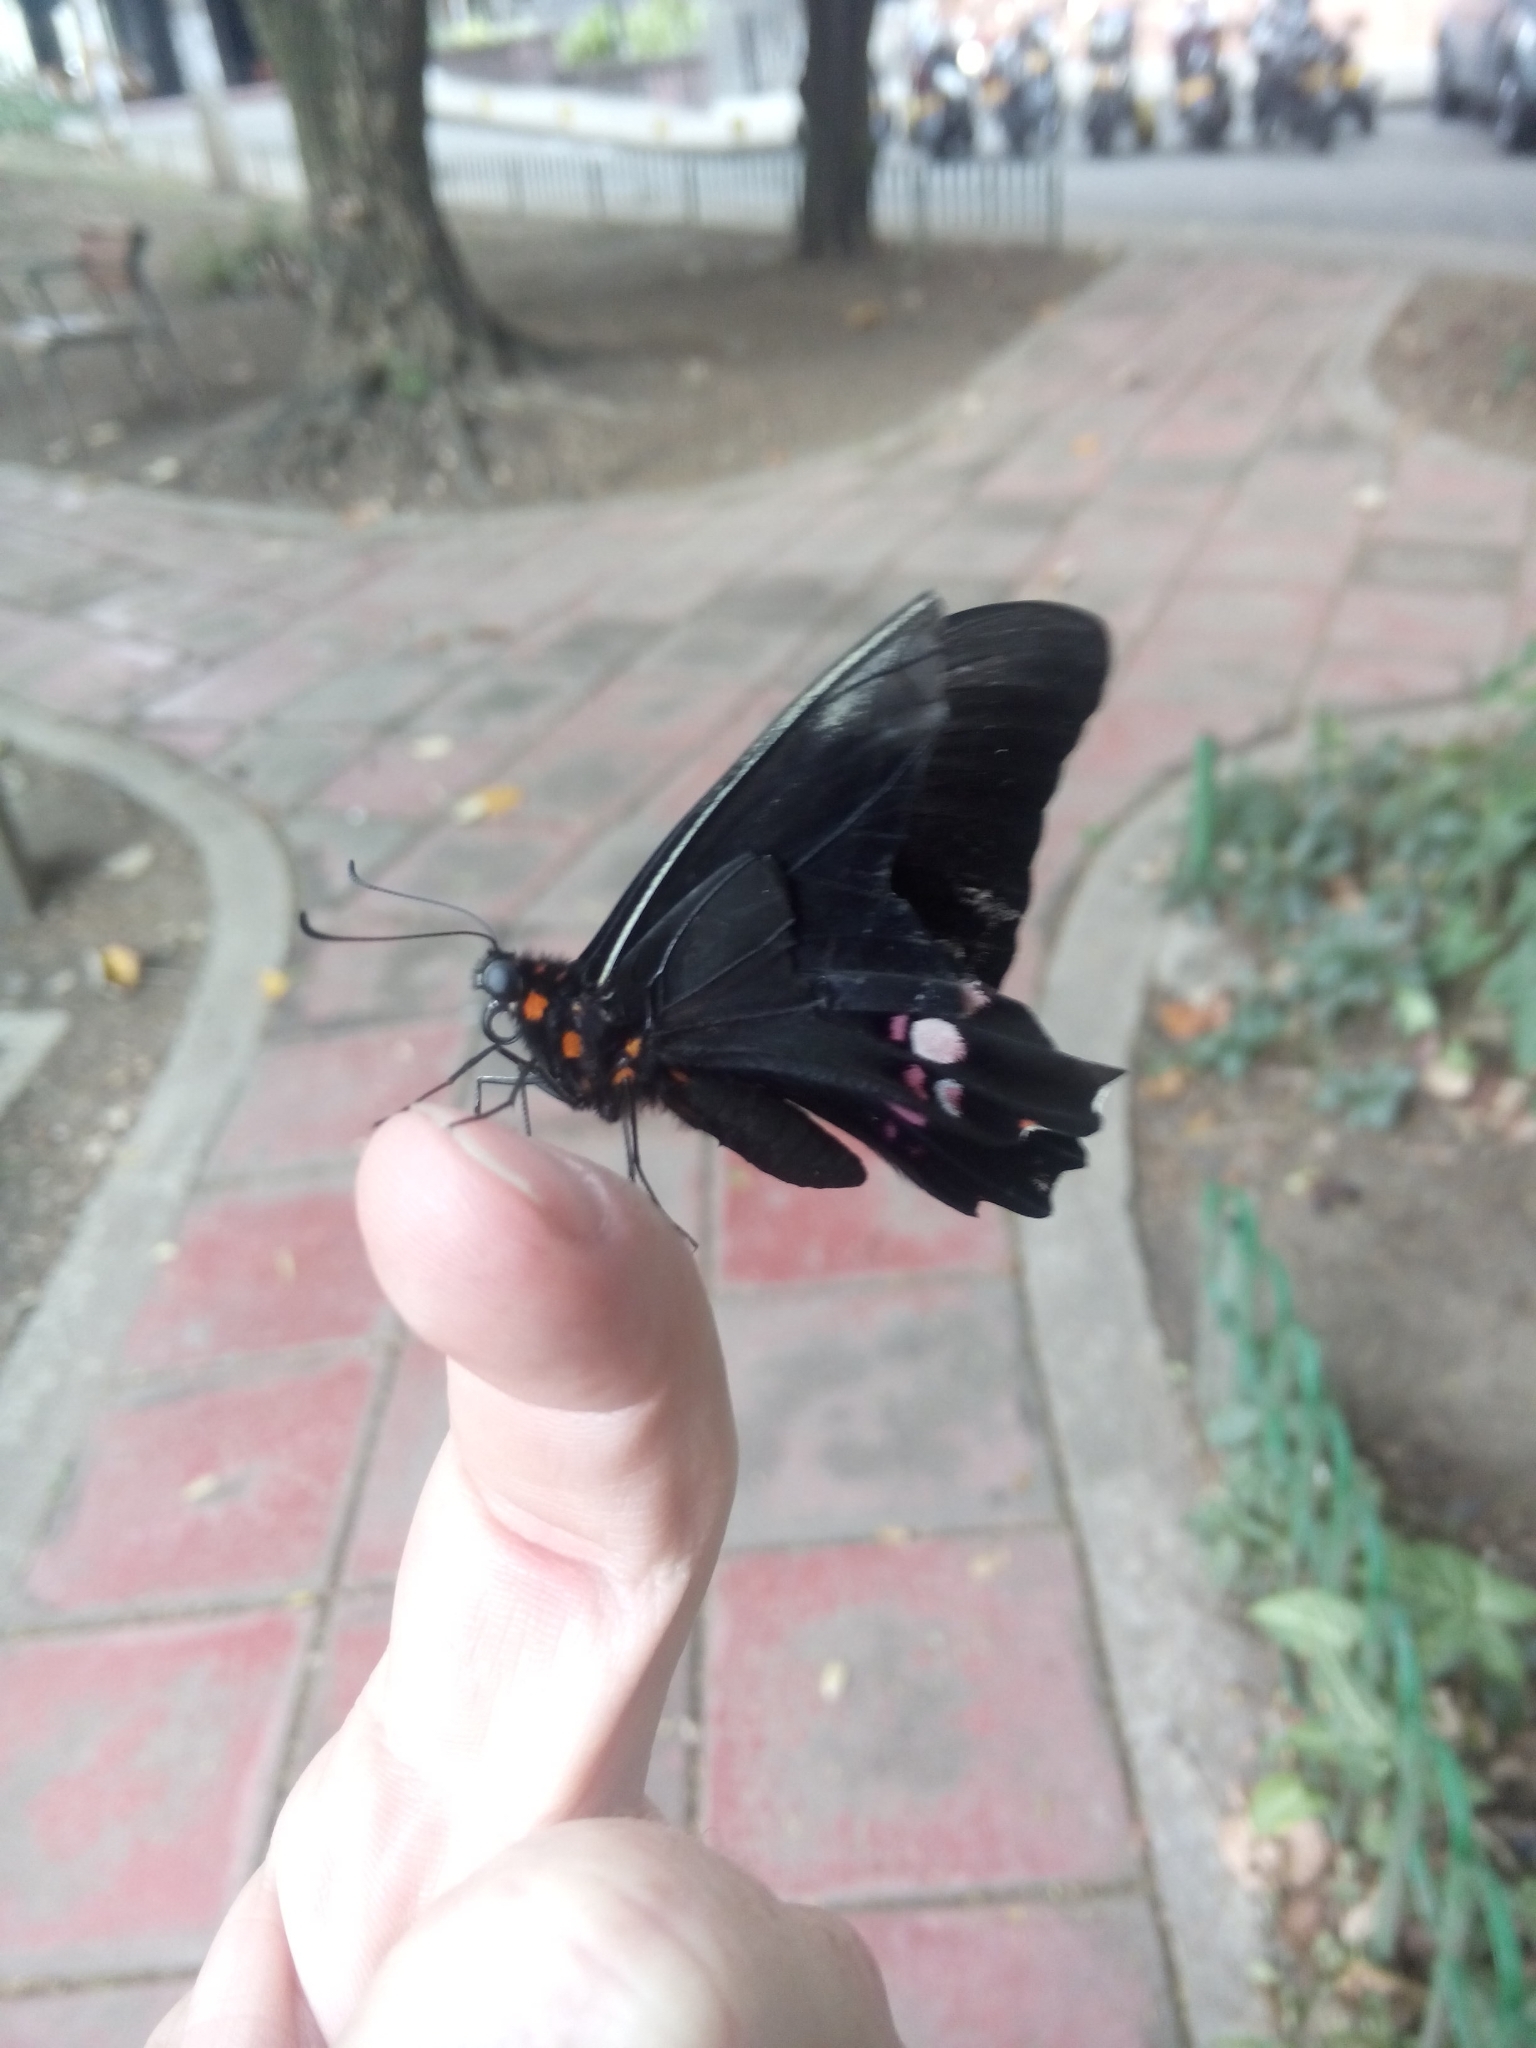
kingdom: Animalia
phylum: Arthropoda
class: Insecta
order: Lepidoptera
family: Papilionidae
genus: Papilio
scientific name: Papilio anchisiades
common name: Idaes swallowtail
